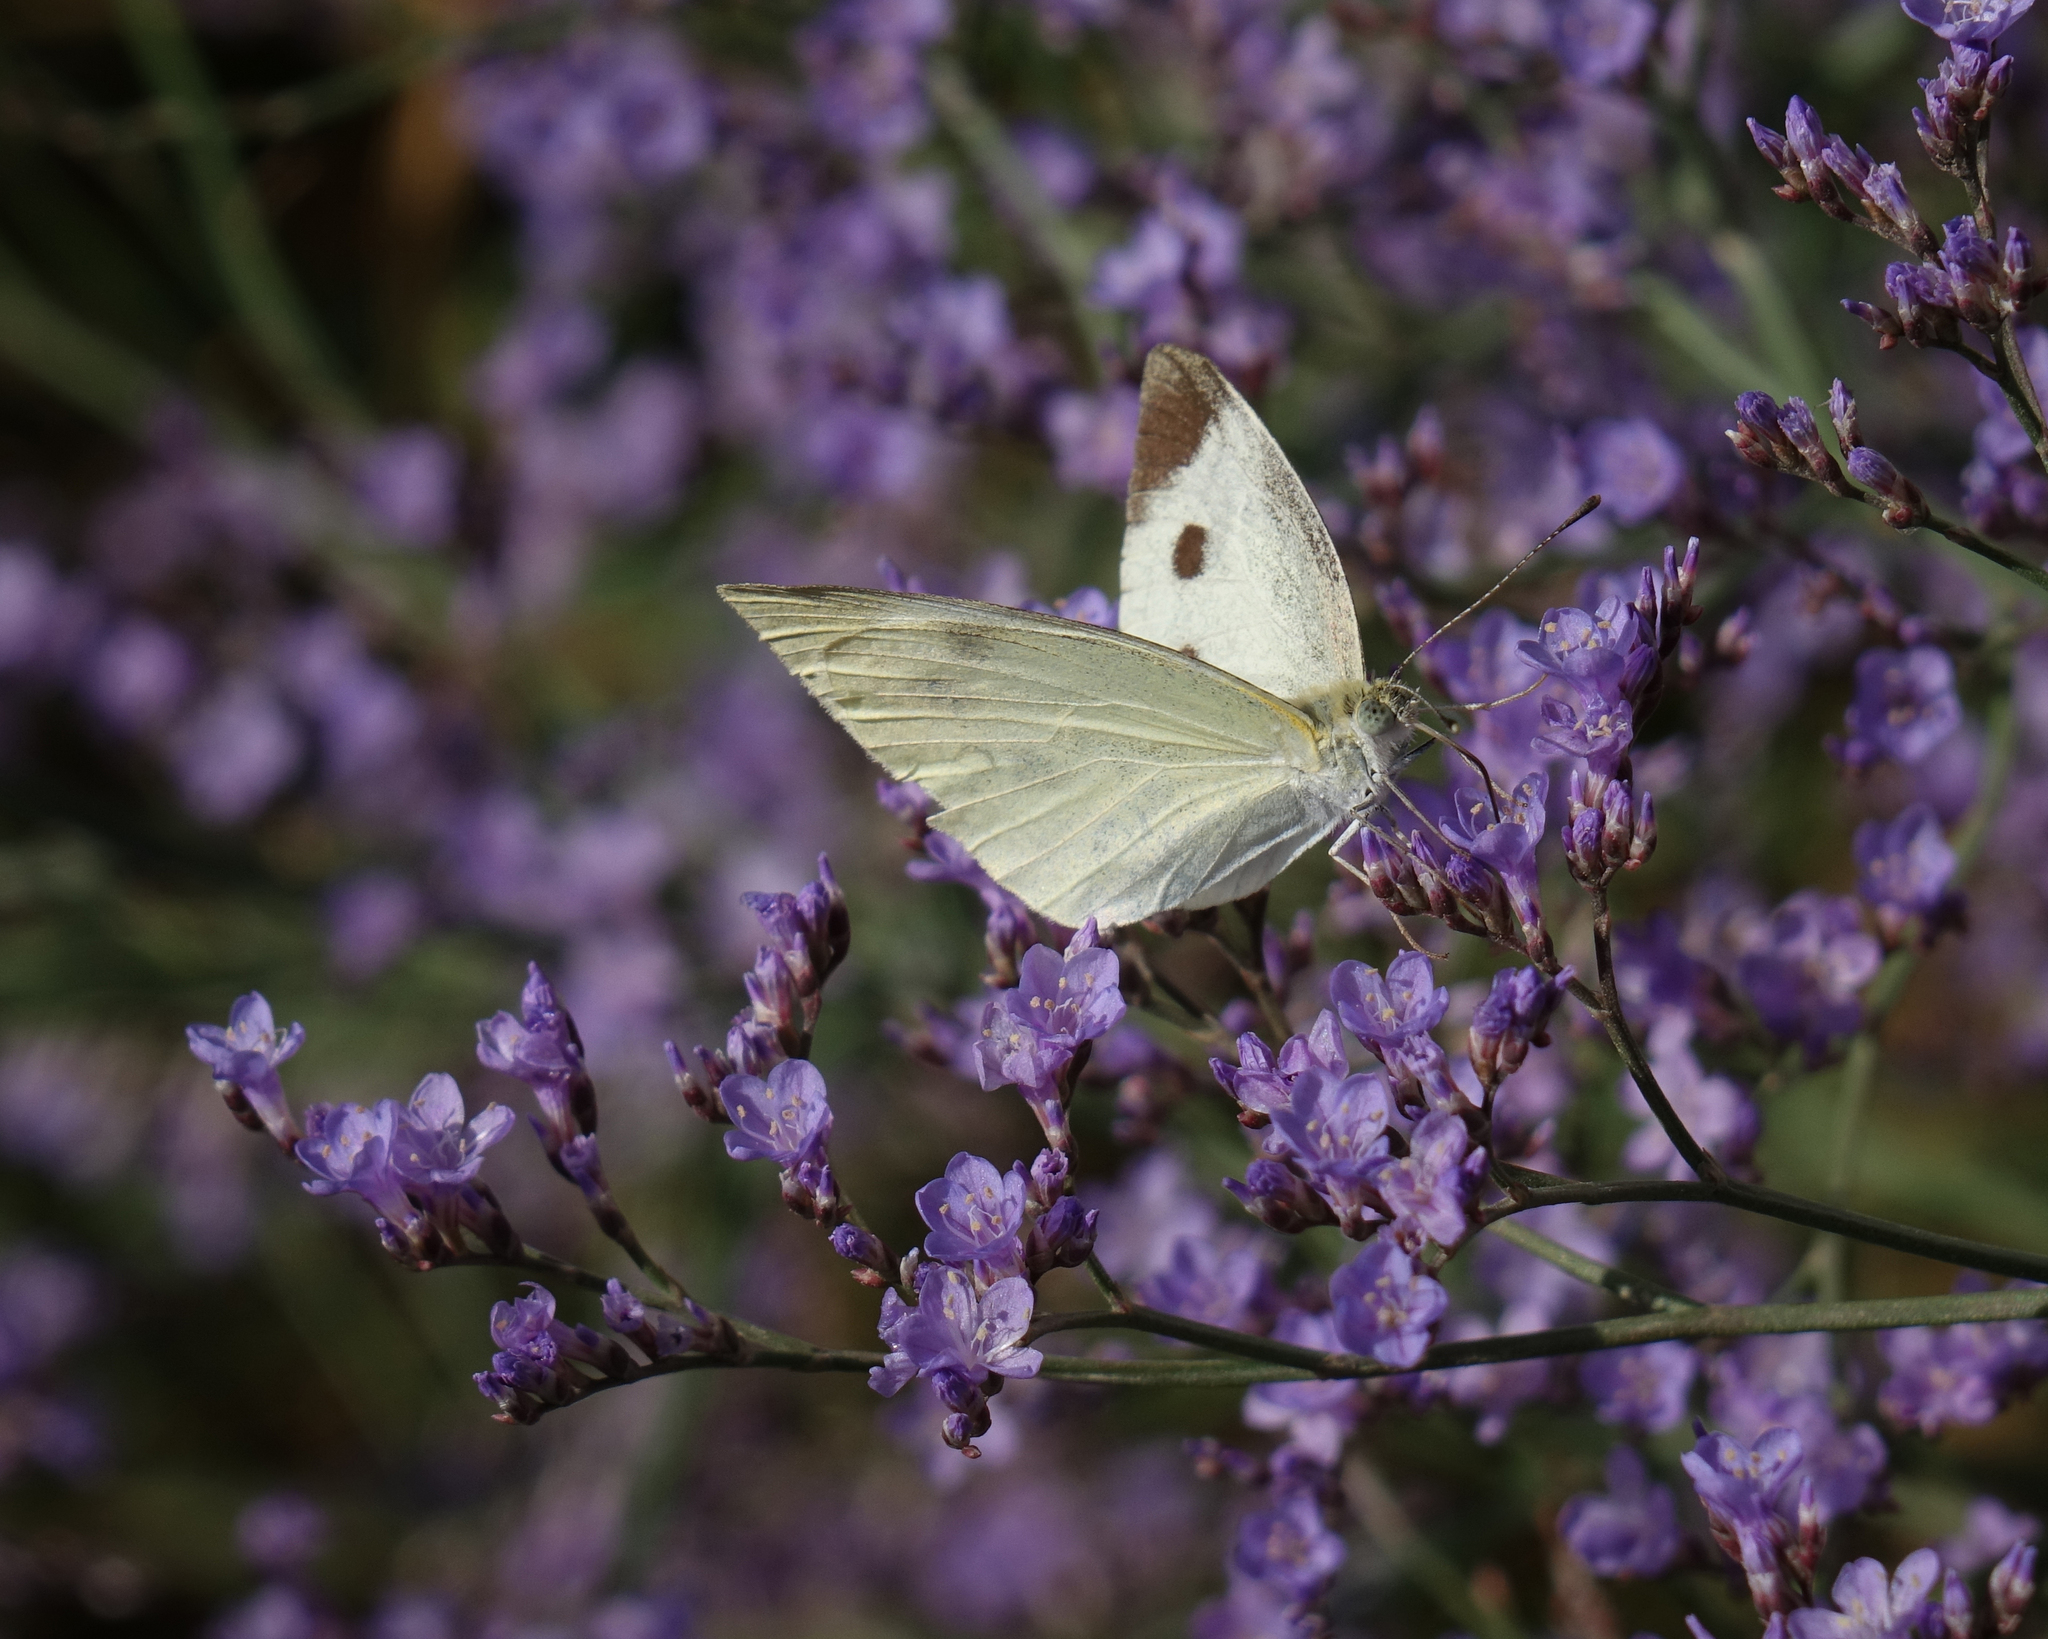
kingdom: Animalia
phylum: Arthropoda
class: Insecta
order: Lepidoptera
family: Pieridae
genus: Pieris
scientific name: Pieris rapae
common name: Small white
